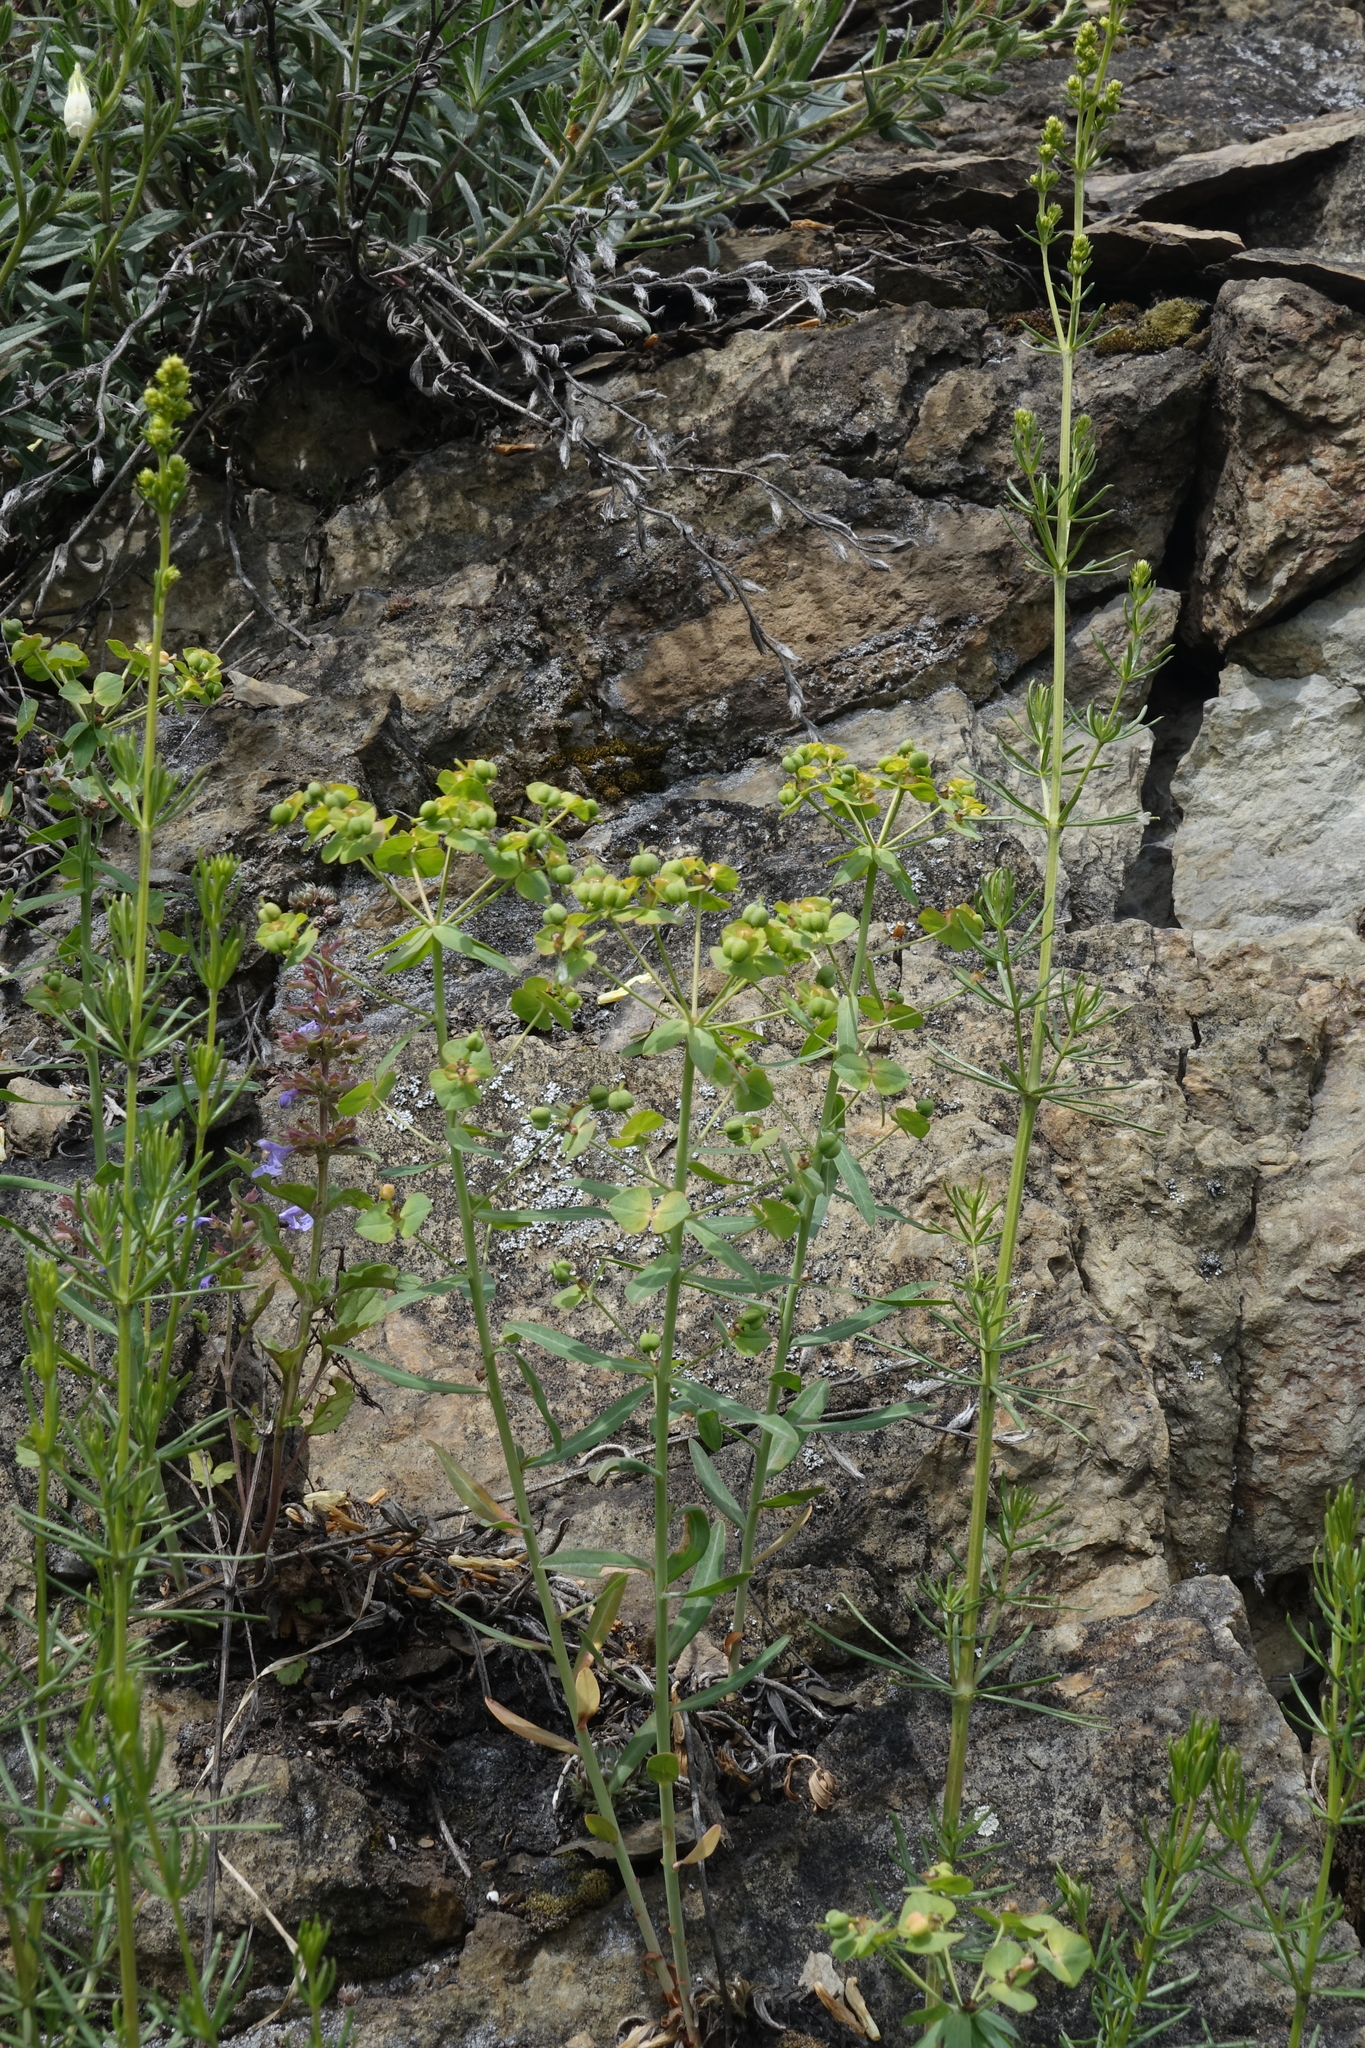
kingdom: Plantae
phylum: Tracheophyta
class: Magnoliopsida
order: Malpighiales
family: Euphorbiaceae
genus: Euphorbia
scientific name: Euphorbia caesia
